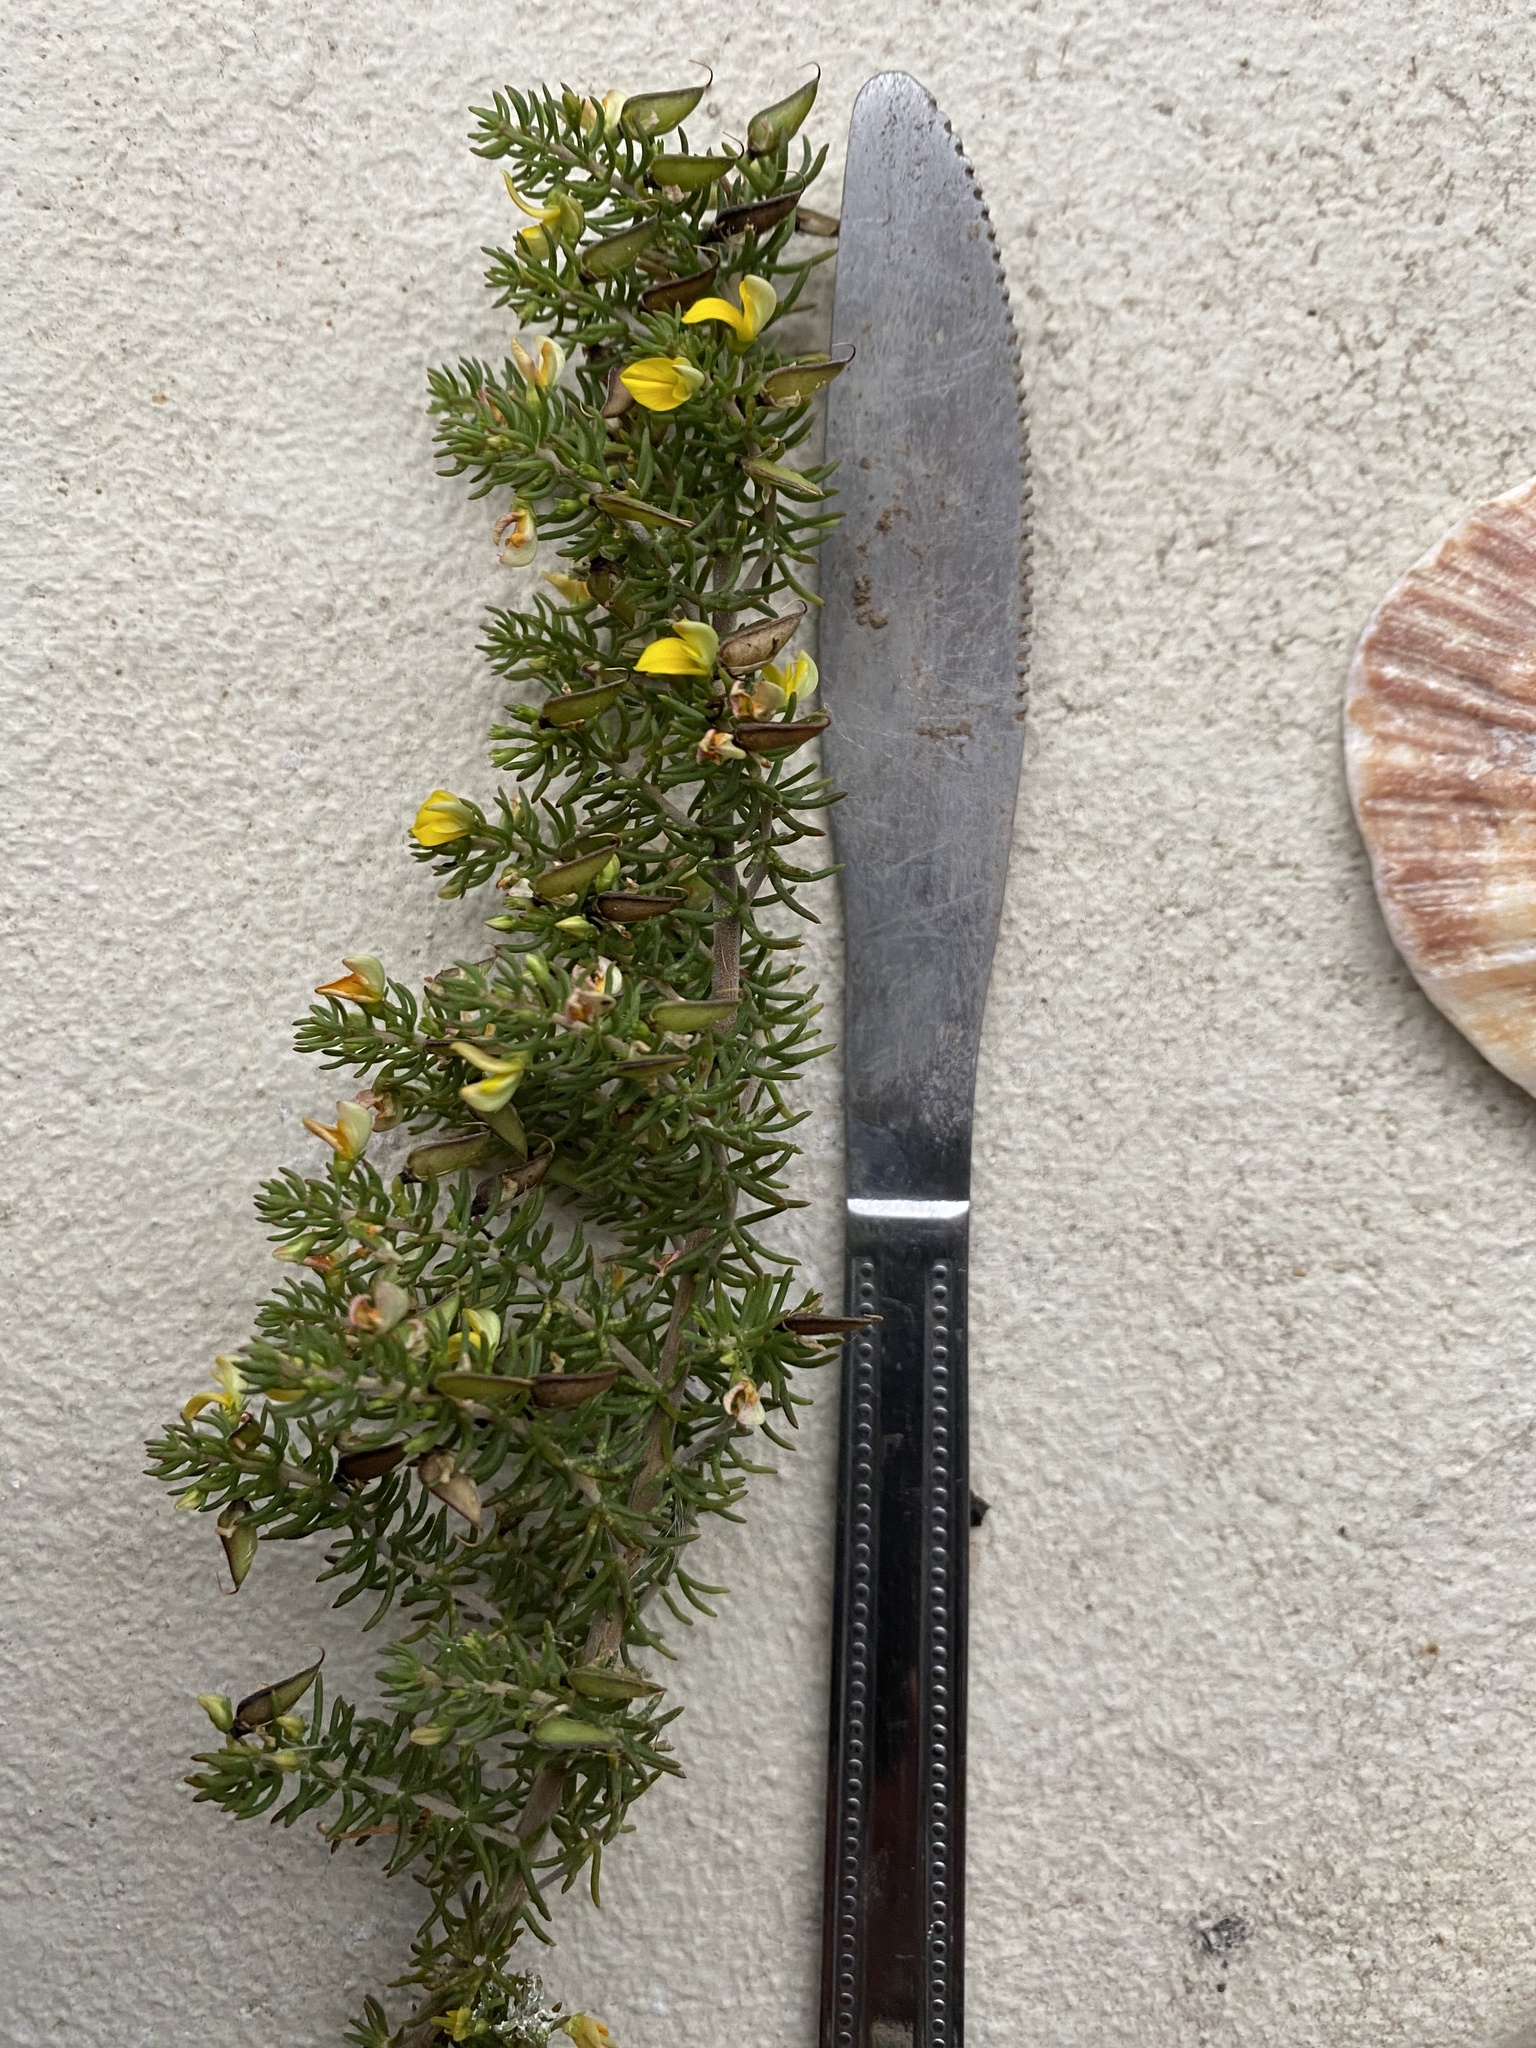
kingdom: Plantae
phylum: Tracheophyta
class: Magnoliopsida
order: Fabales
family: Fabaceae
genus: Aspalathus
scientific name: Aspalathus sanguinea
